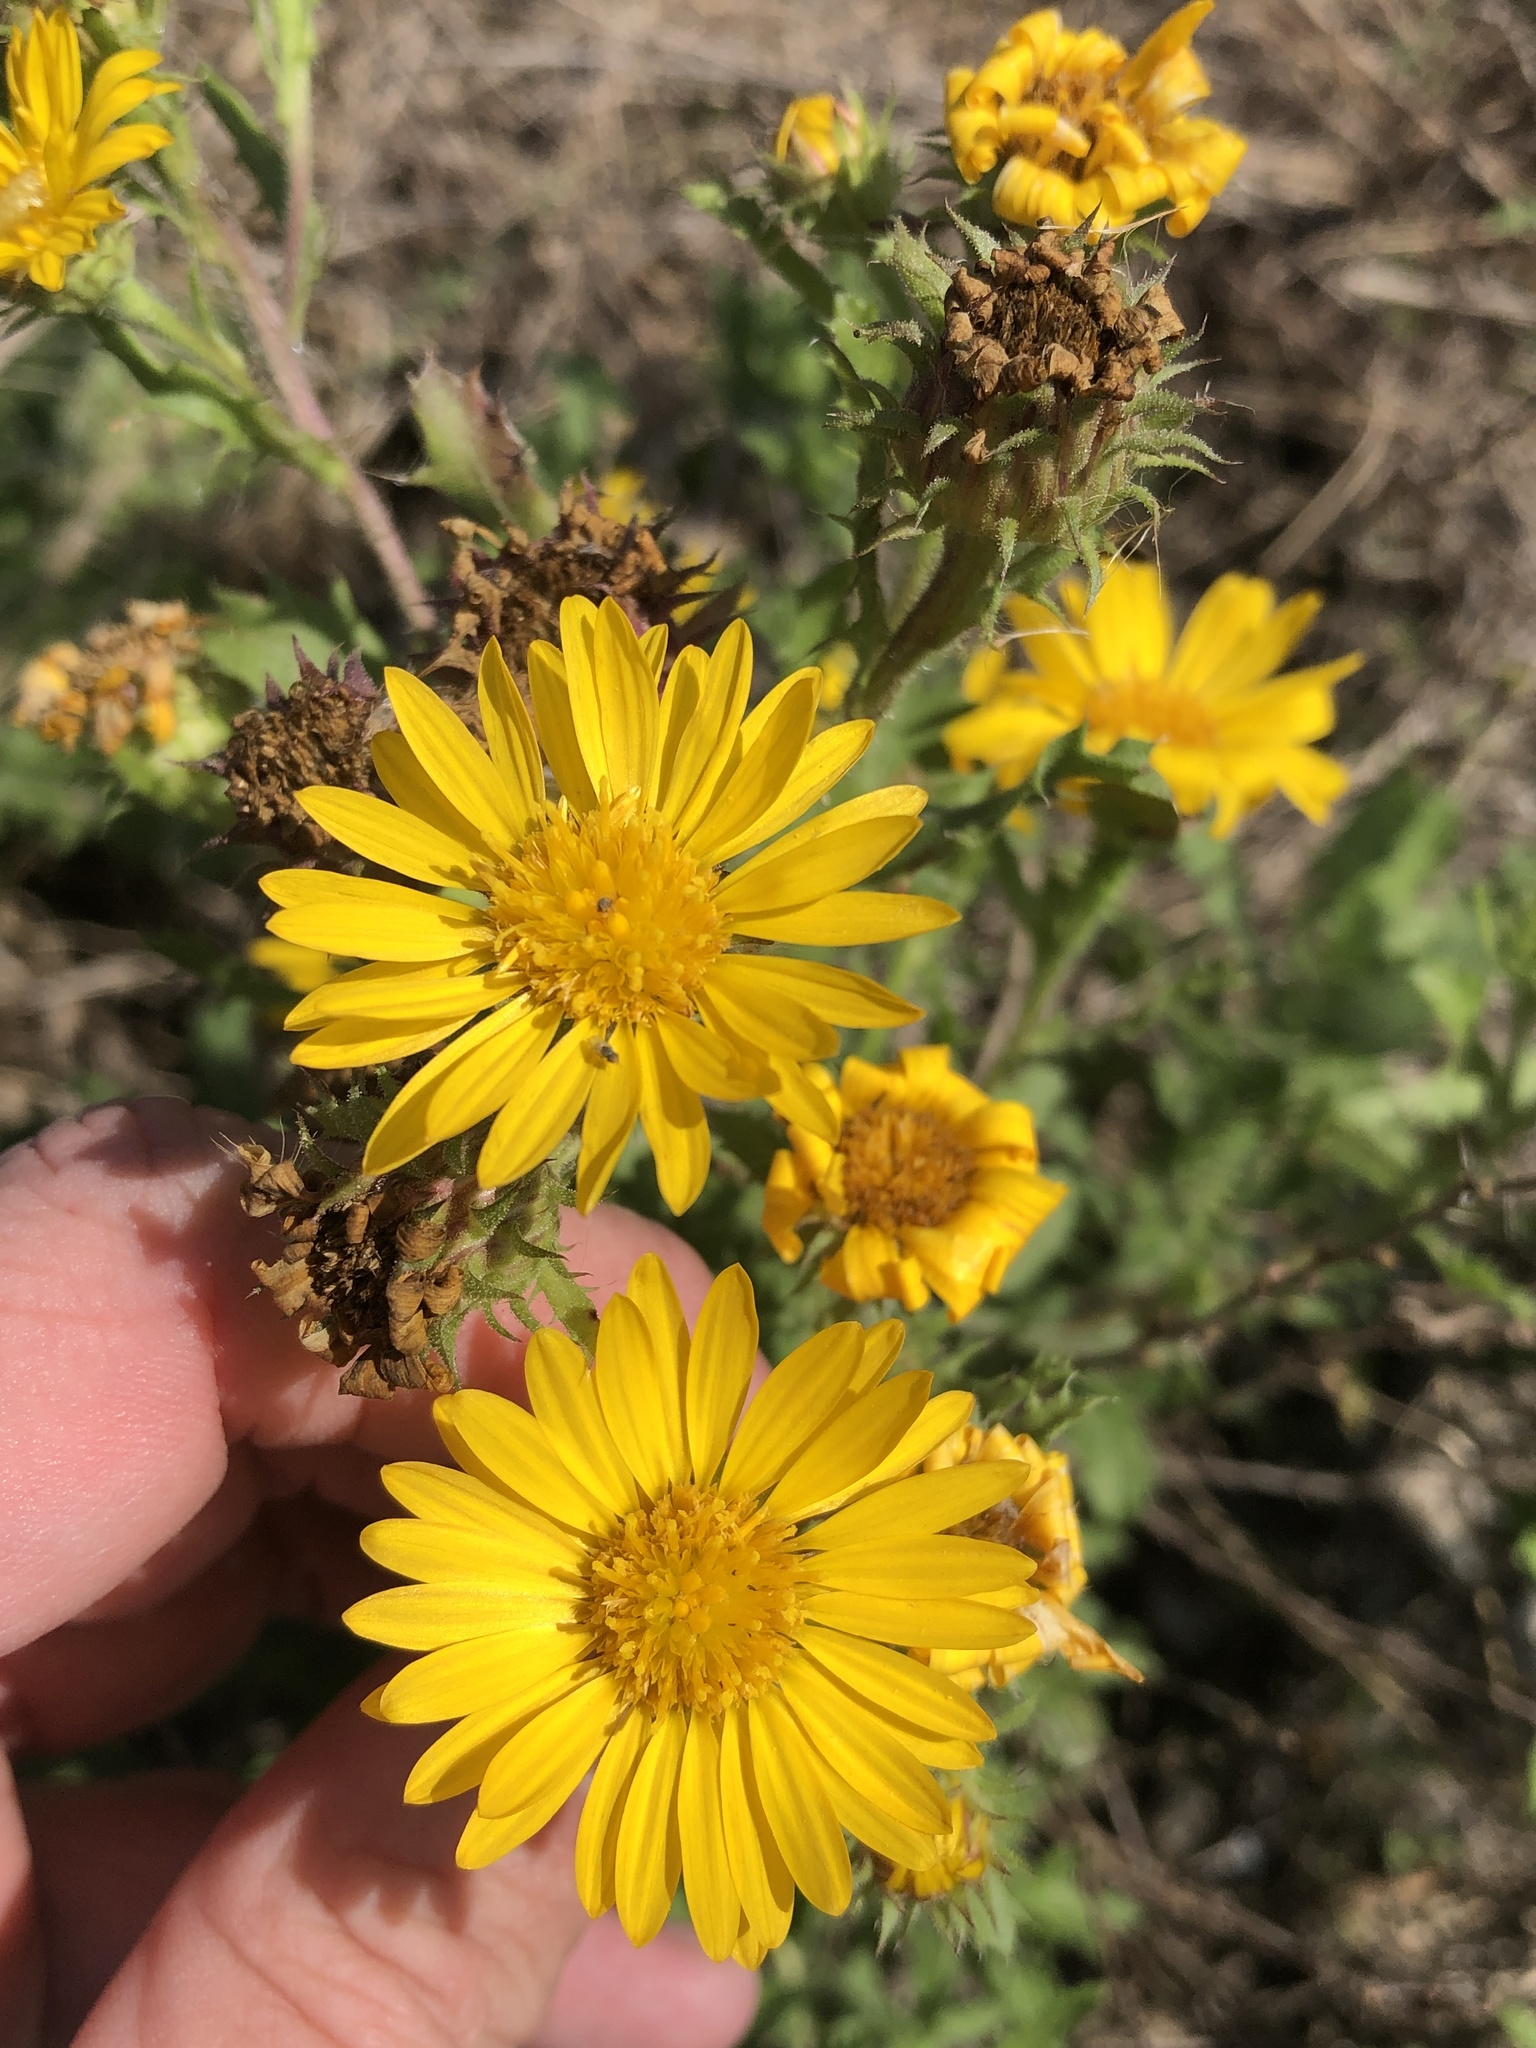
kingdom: Plantae
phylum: Tracheophyta
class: Magnoliopsida
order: Asterales
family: Asteraceae
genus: Rayjacksonia
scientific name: Rayjacksonia phyllocephala
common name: Gulf coast camphor daisy
